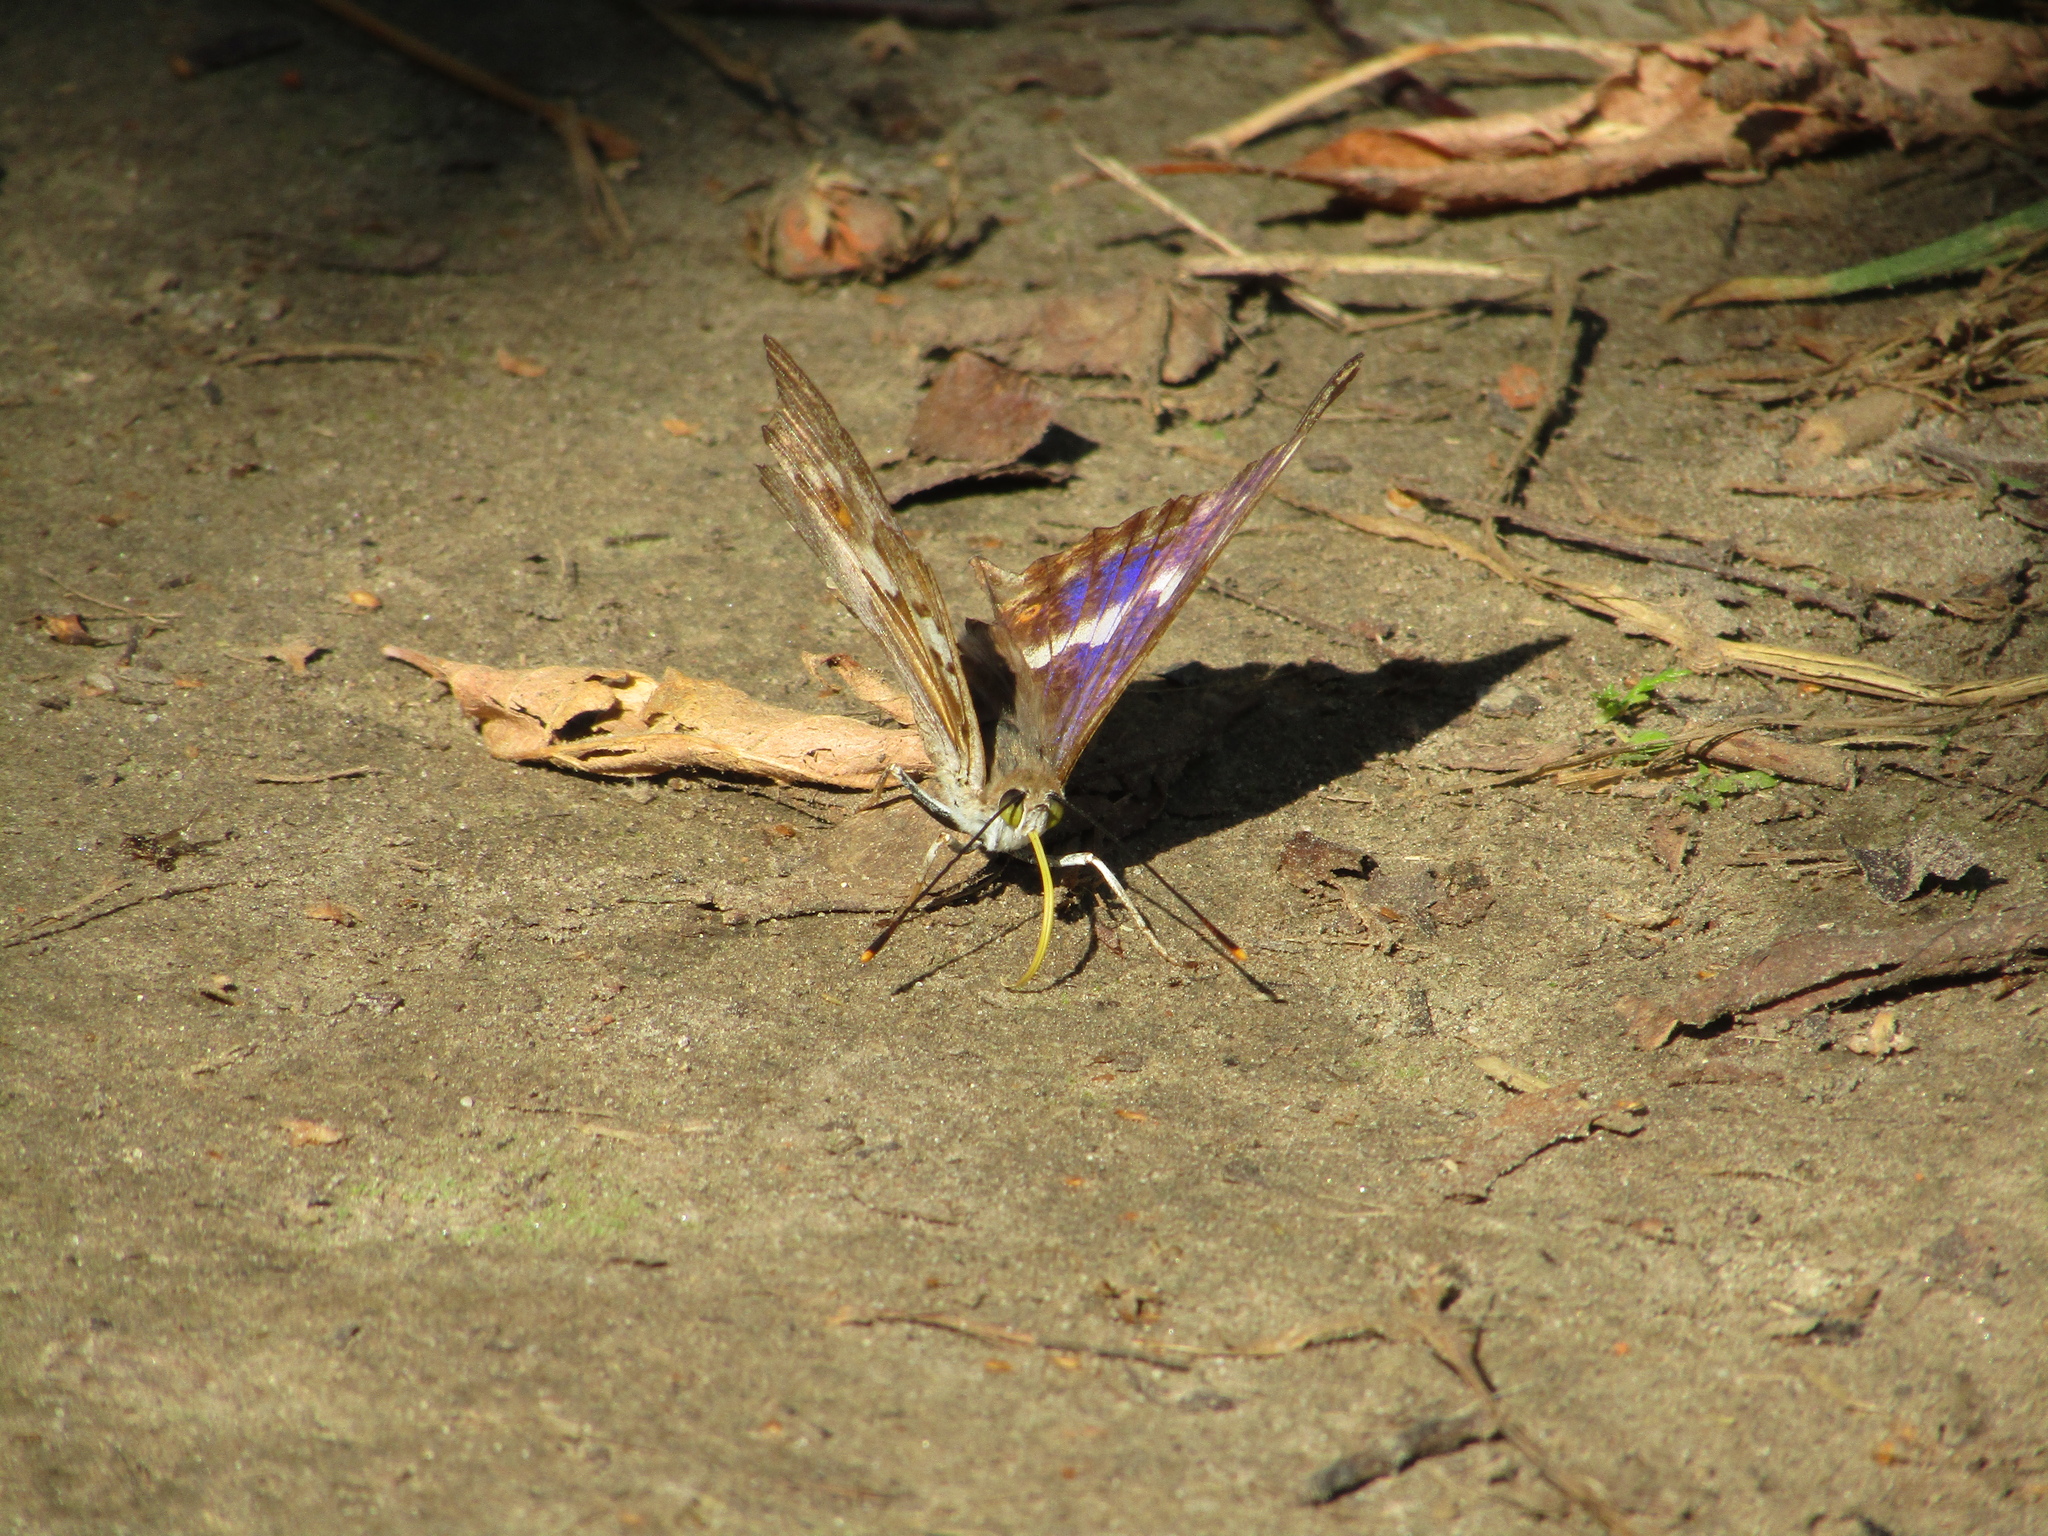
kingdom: Animalia
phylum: Arthropoda
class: Insecta
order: Lepidoptera
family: Nymphalidae
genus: Apatura
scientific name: Apatura ilia
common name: Lesser purple emperor
